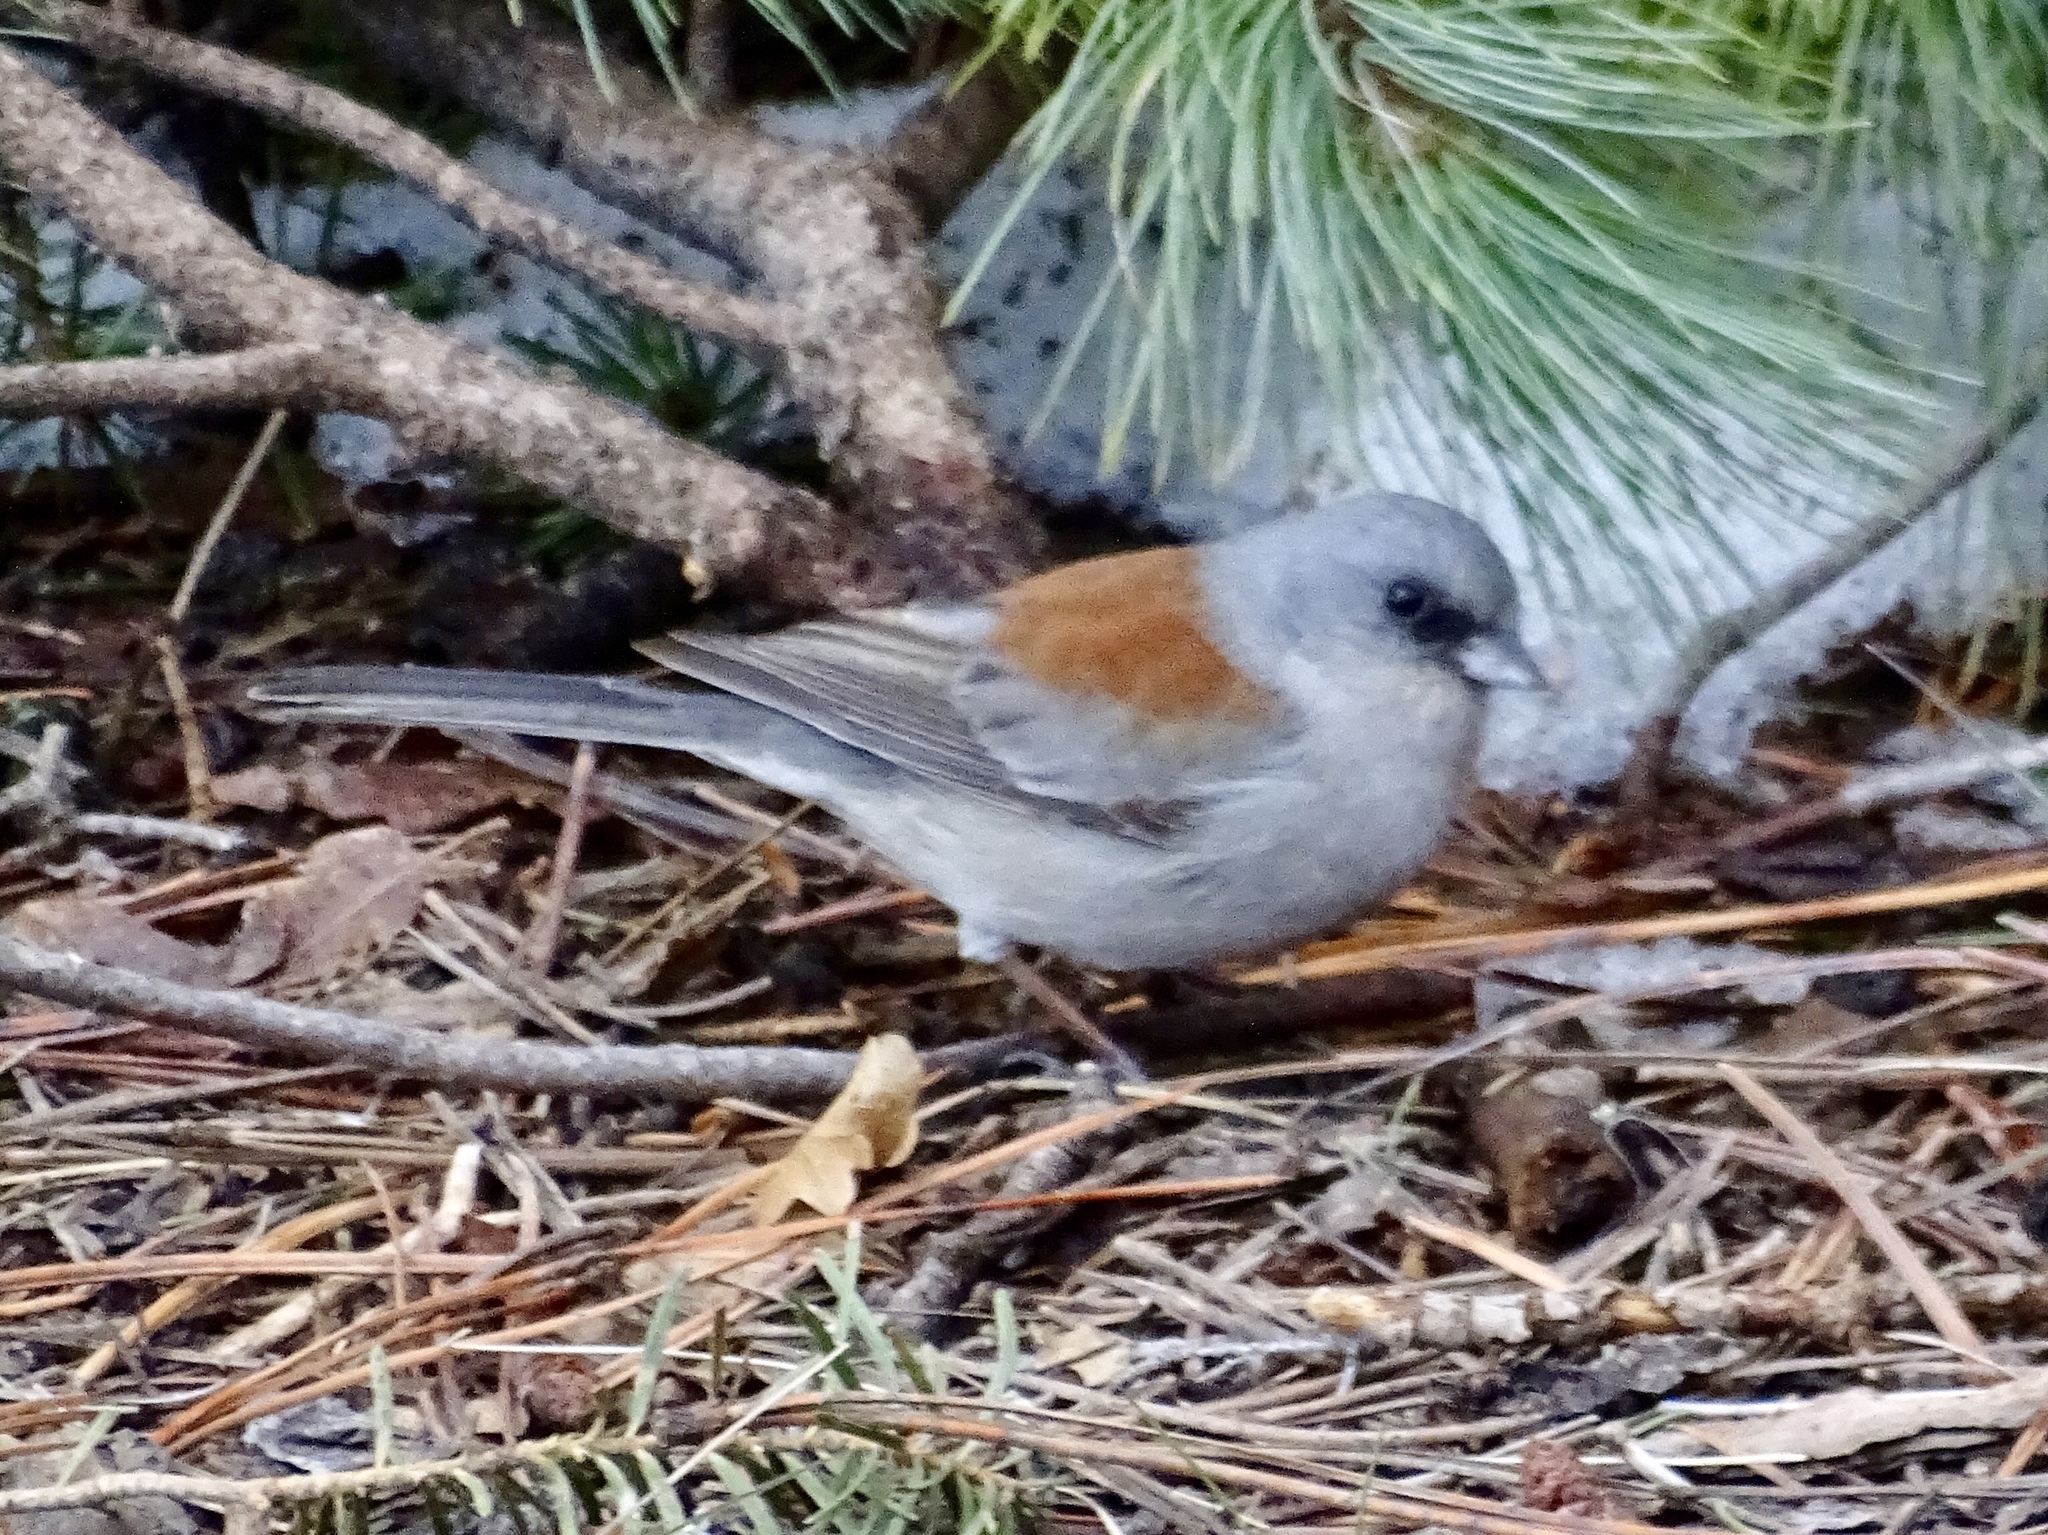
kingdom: Animalia
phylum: Chordata
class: Aves
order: Passeriformes
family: Passerellidae
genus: Junco
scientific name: Junco hyemalis
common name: Dark-eyed junco
